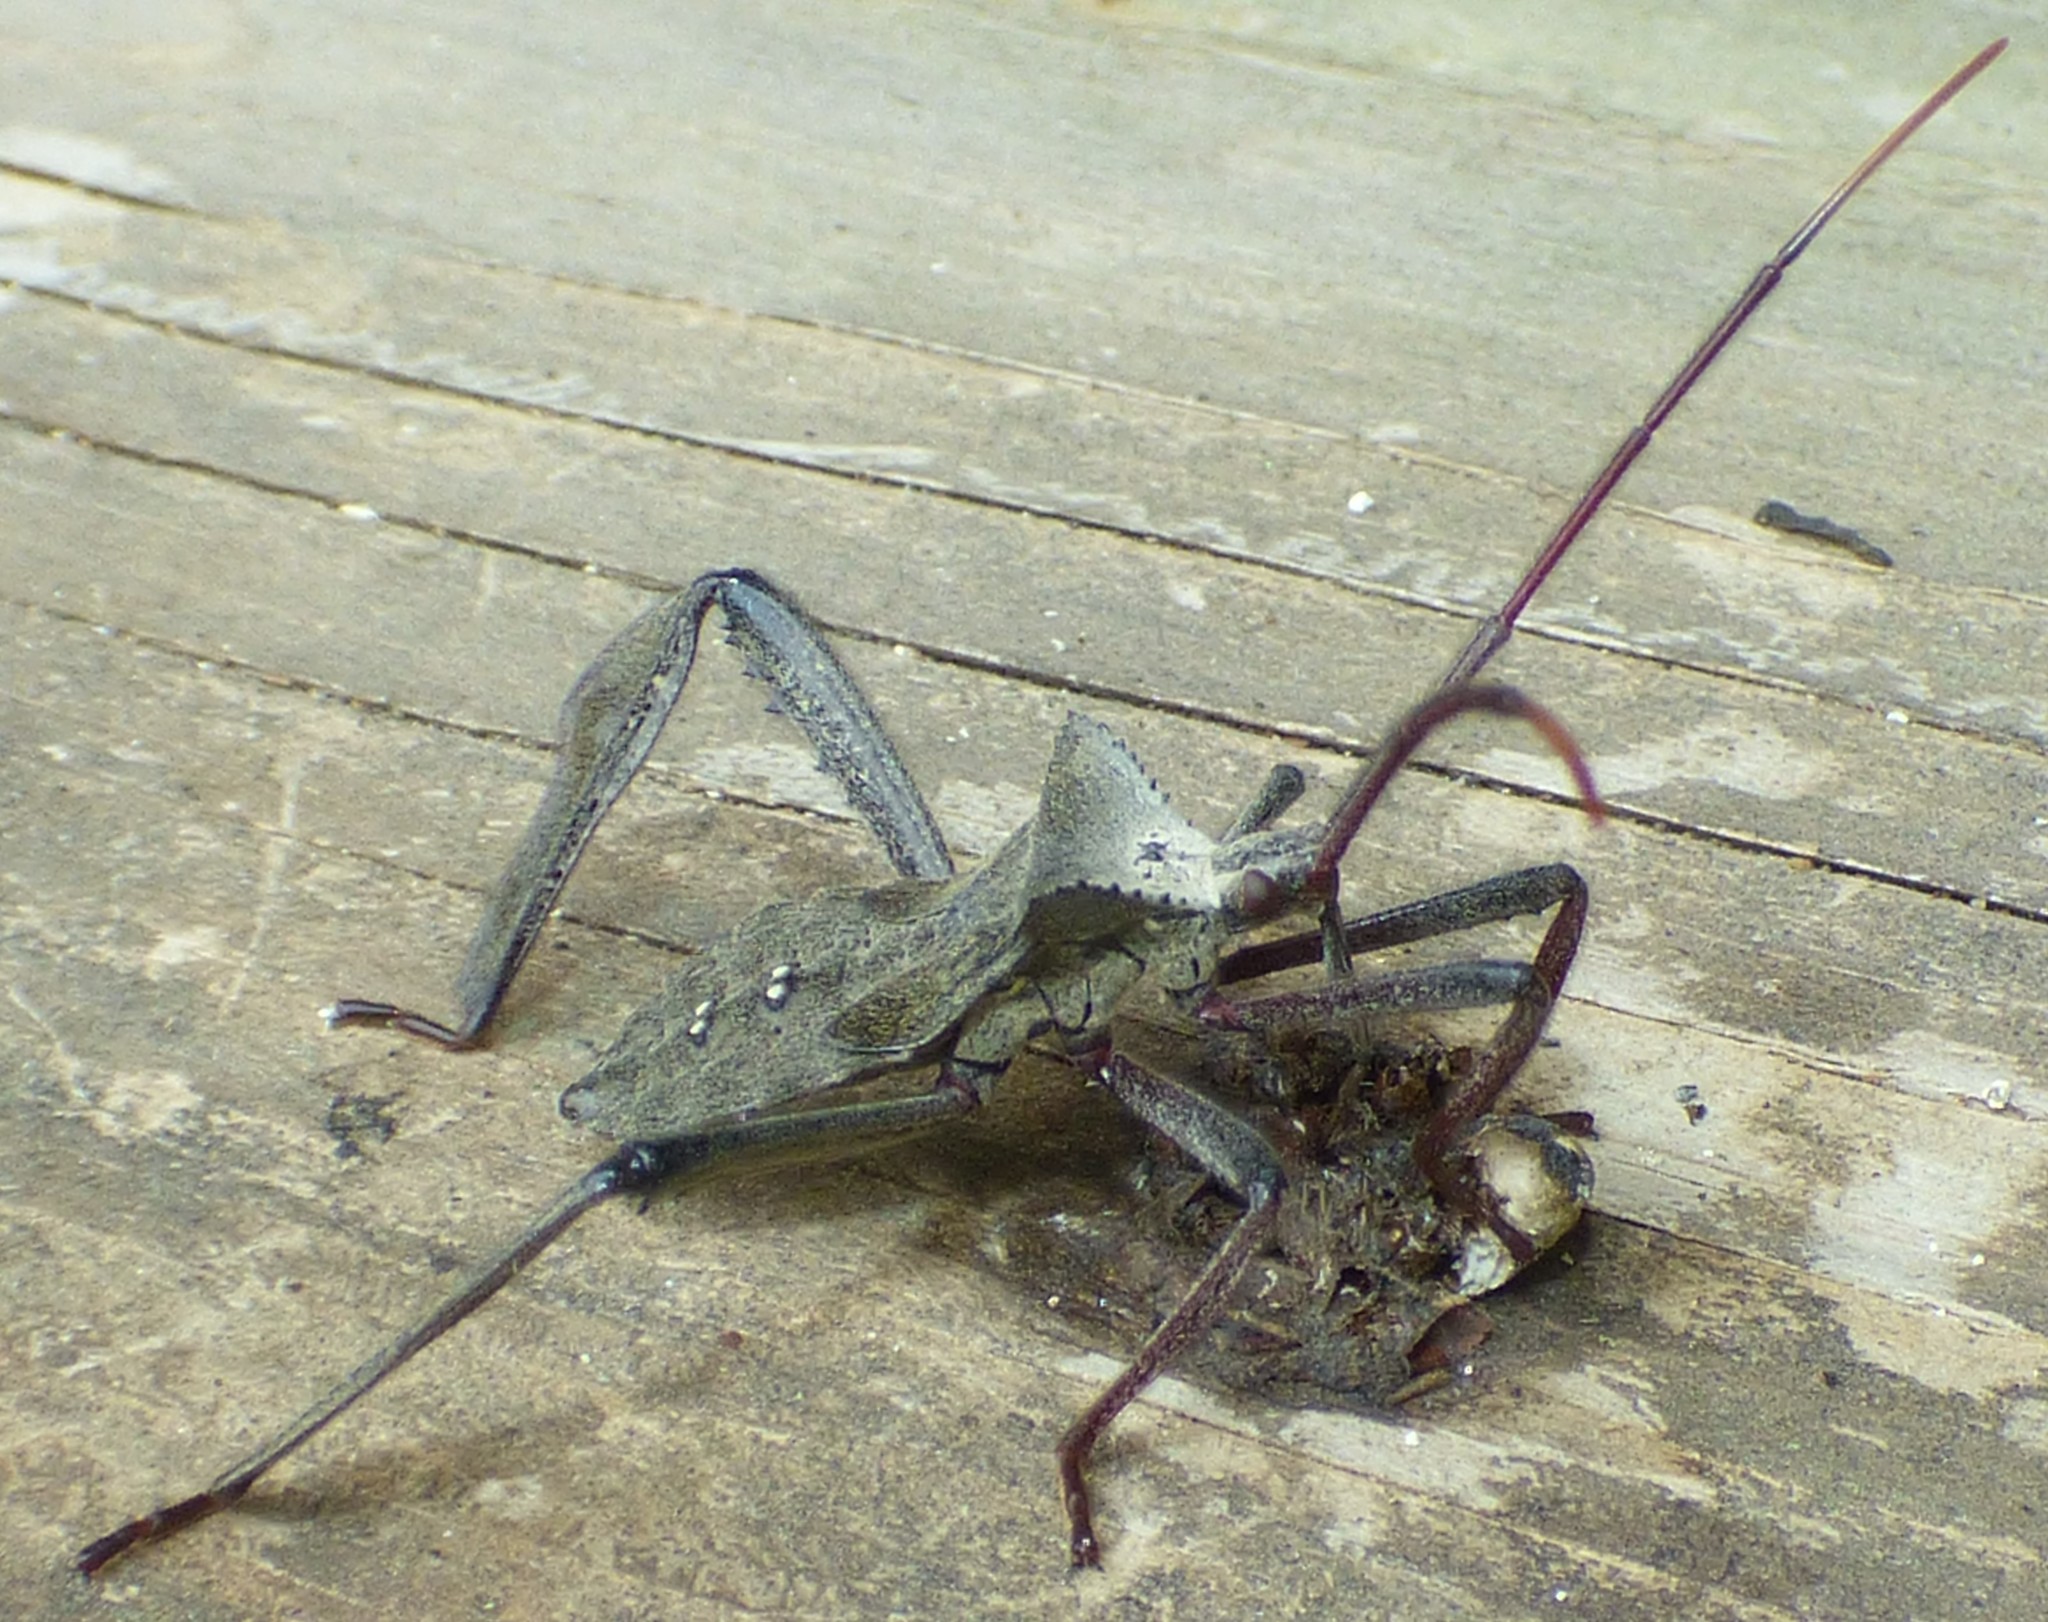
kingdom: Animalia
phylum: Arthropoda
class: Insecta
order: Hemiptera
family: Coreidae
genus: Acanthocephala
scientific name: Acanthocephala declivis
